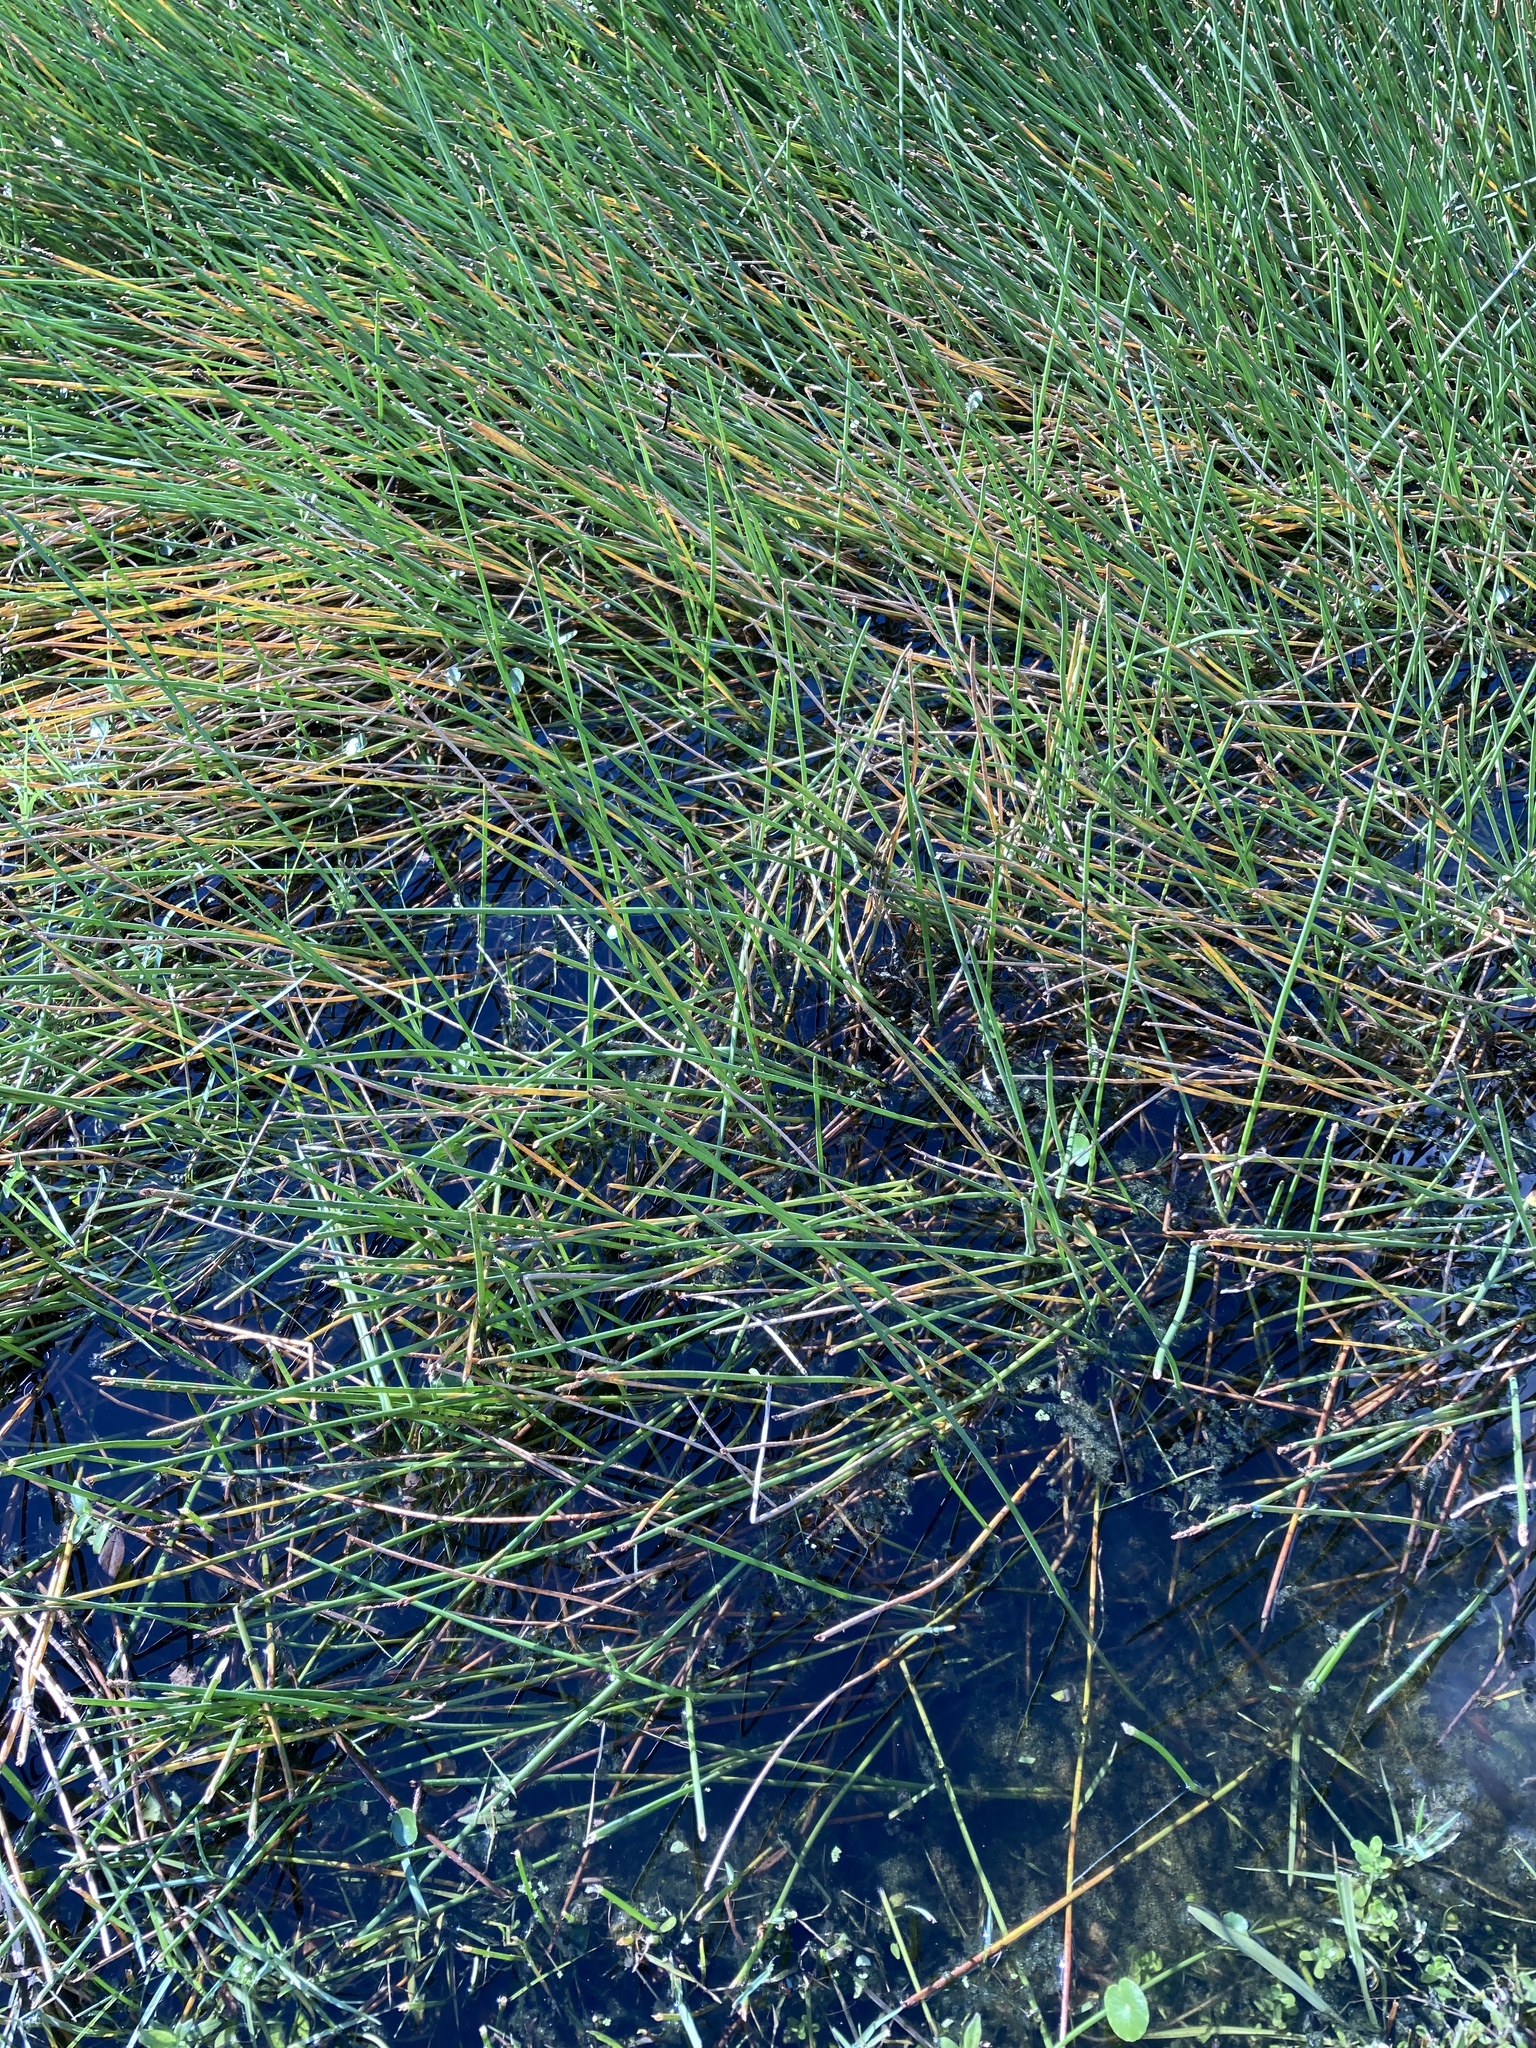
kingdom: Plantae
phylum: Tracheophyta
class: Liliopsida
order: Poales
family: Cyperaceae
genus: Eleocharis
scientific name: Eleocharis cellulosa
